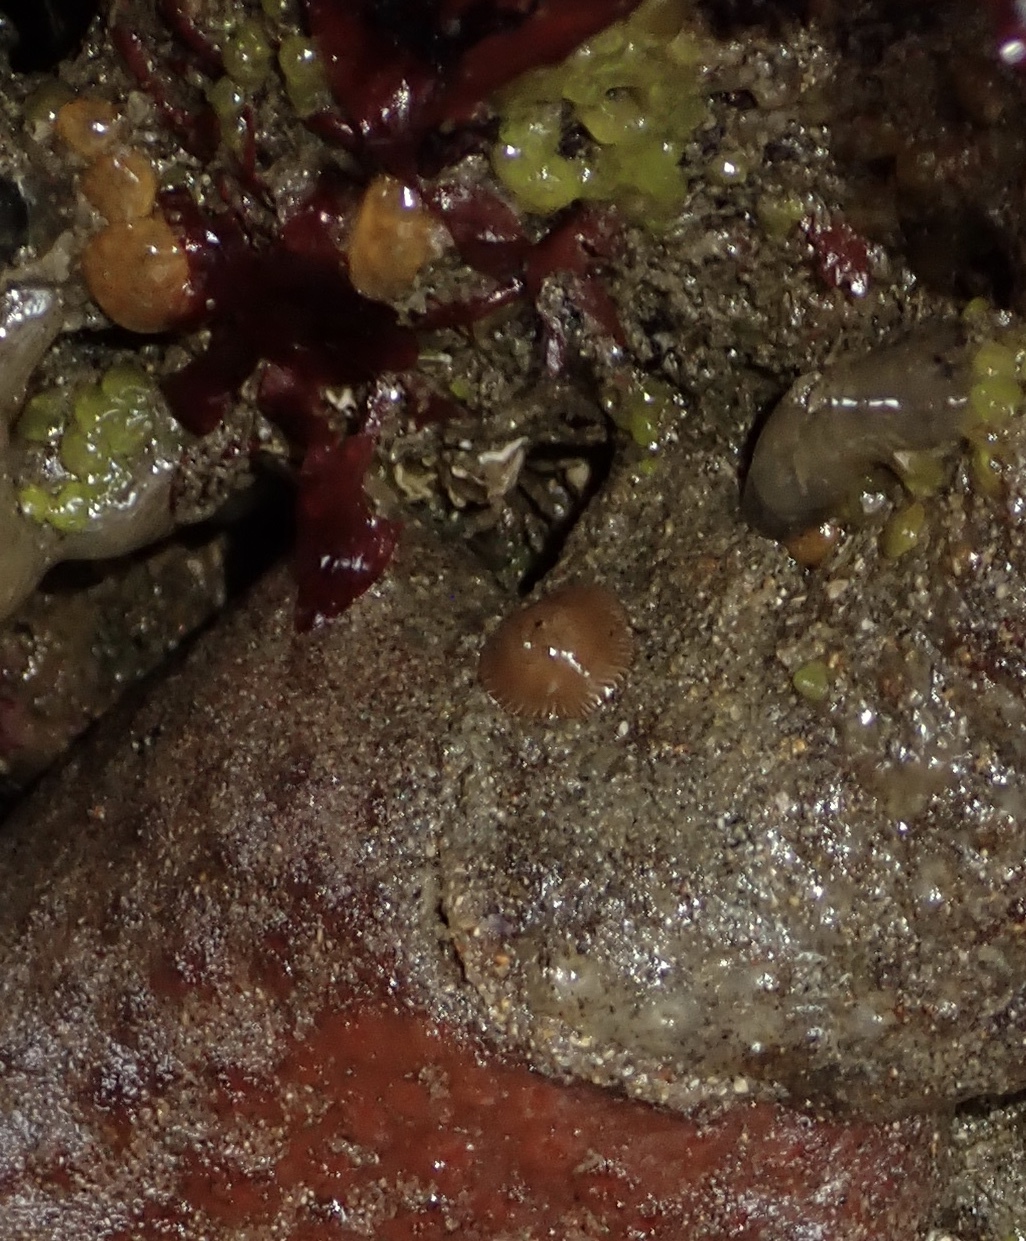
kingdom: Animalia
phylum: Cnidaria
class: Anthozoa
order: Actiniaria
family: Actiniidae
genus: Epiactis
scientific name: Epiactis prolifera
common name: Brooding anemone
